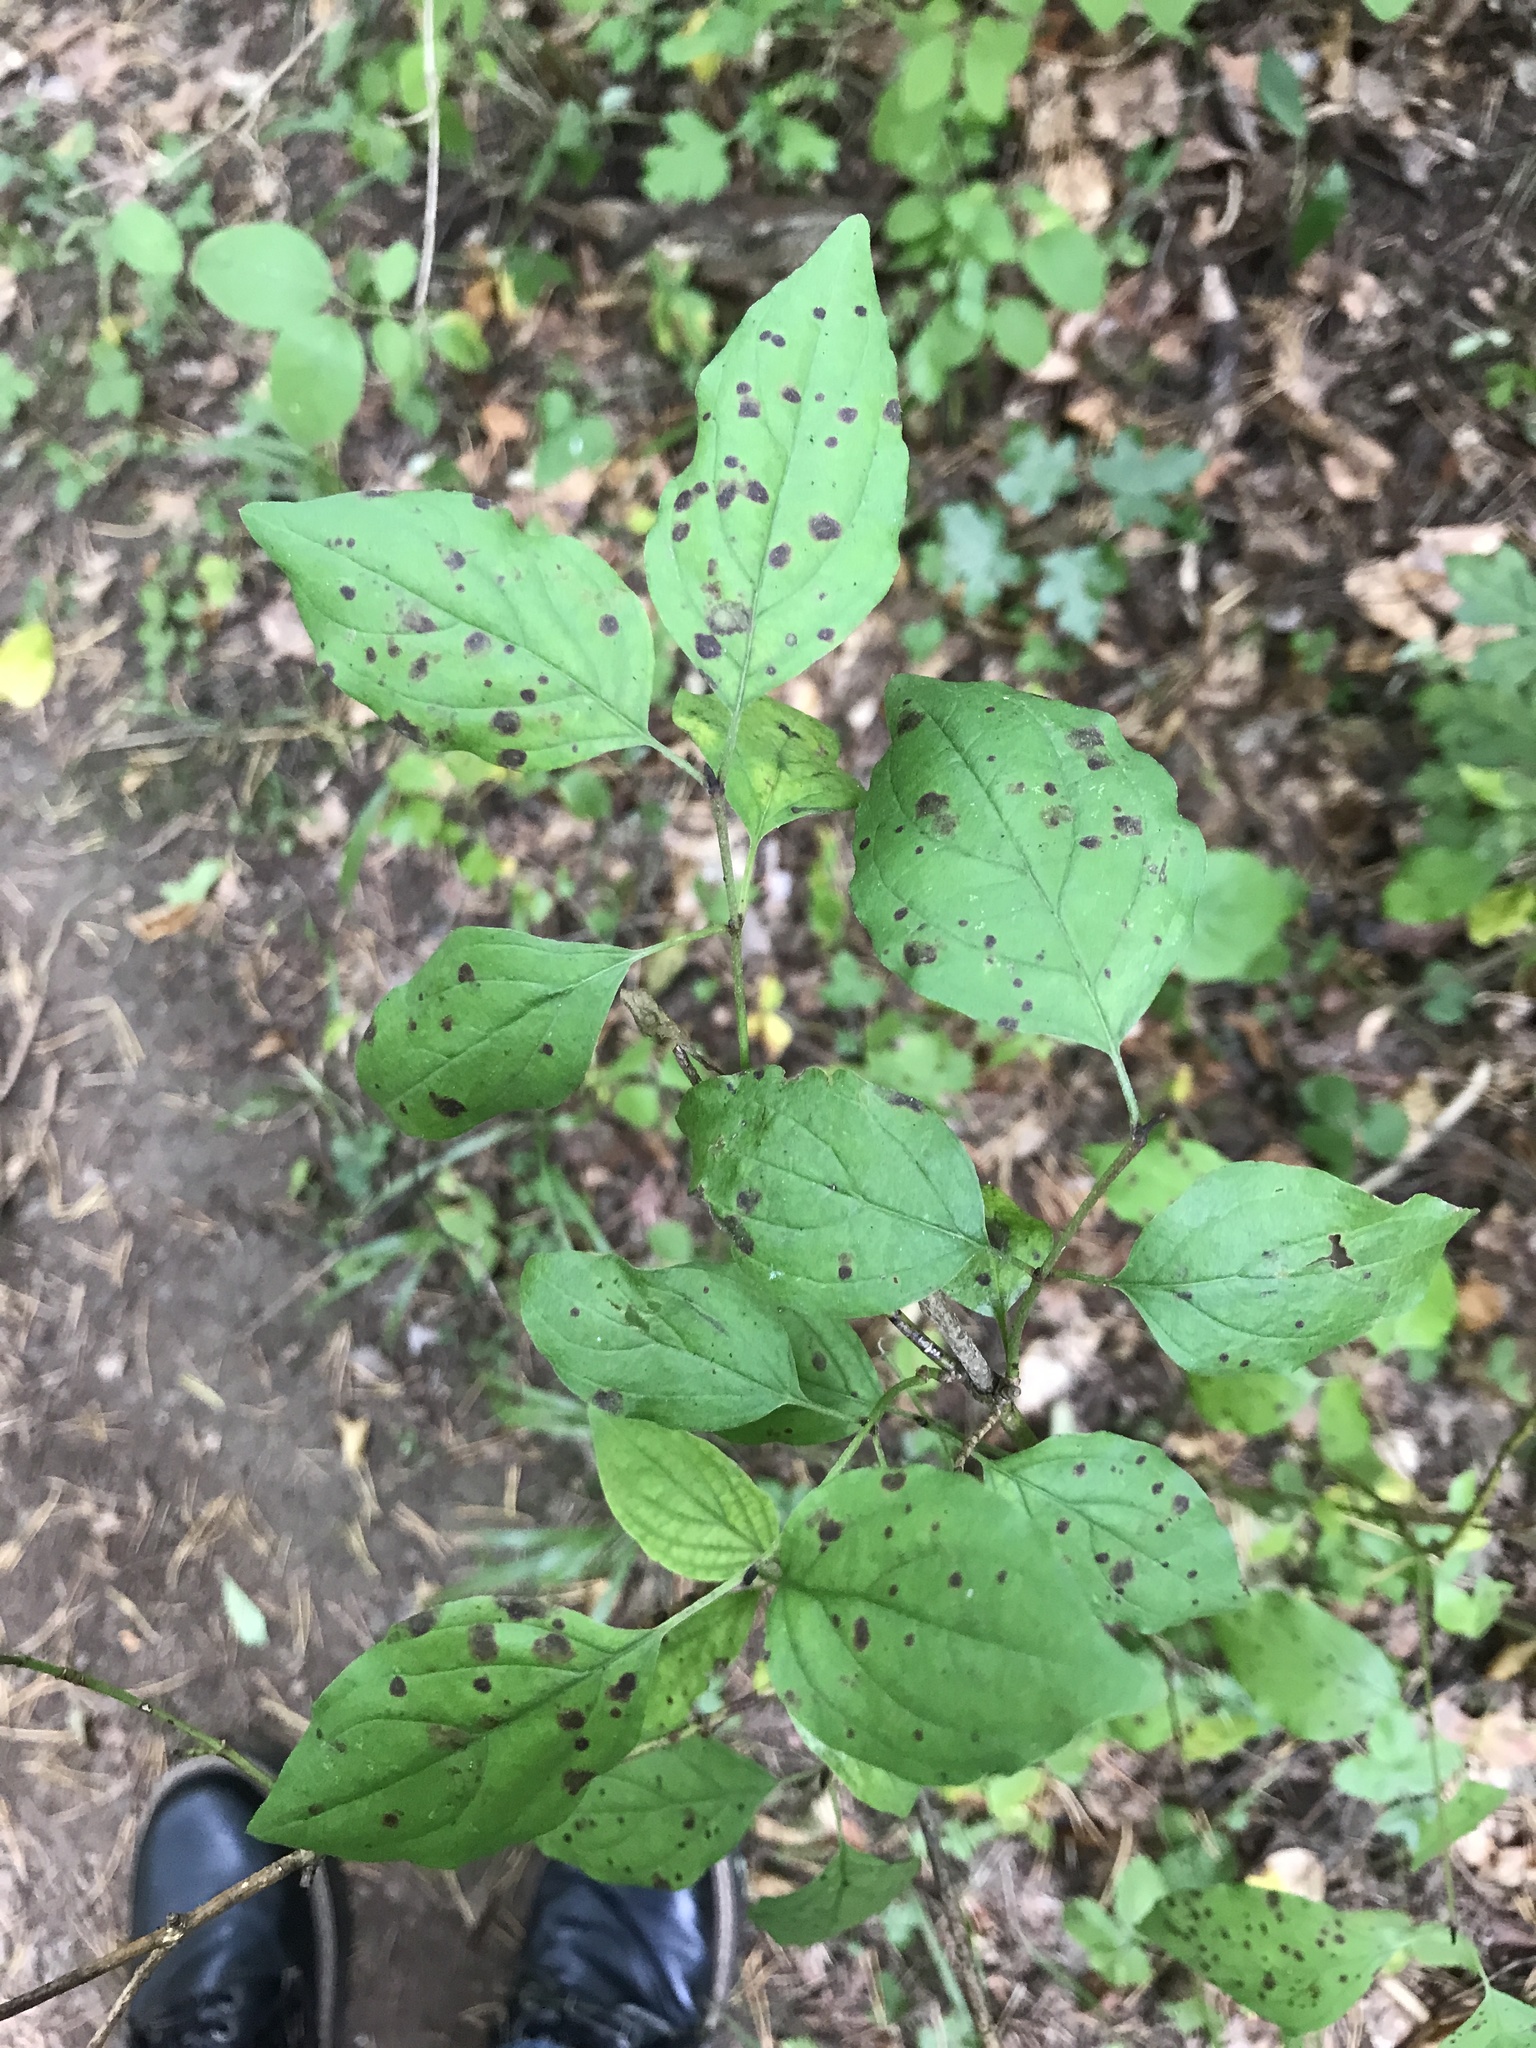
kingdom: Plantae
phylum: Tracheophyta
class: Magnoliopsida
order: Cornales
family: Cornaceae
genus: Cornus
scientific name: Cornus sanguinea
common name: Dogwood
